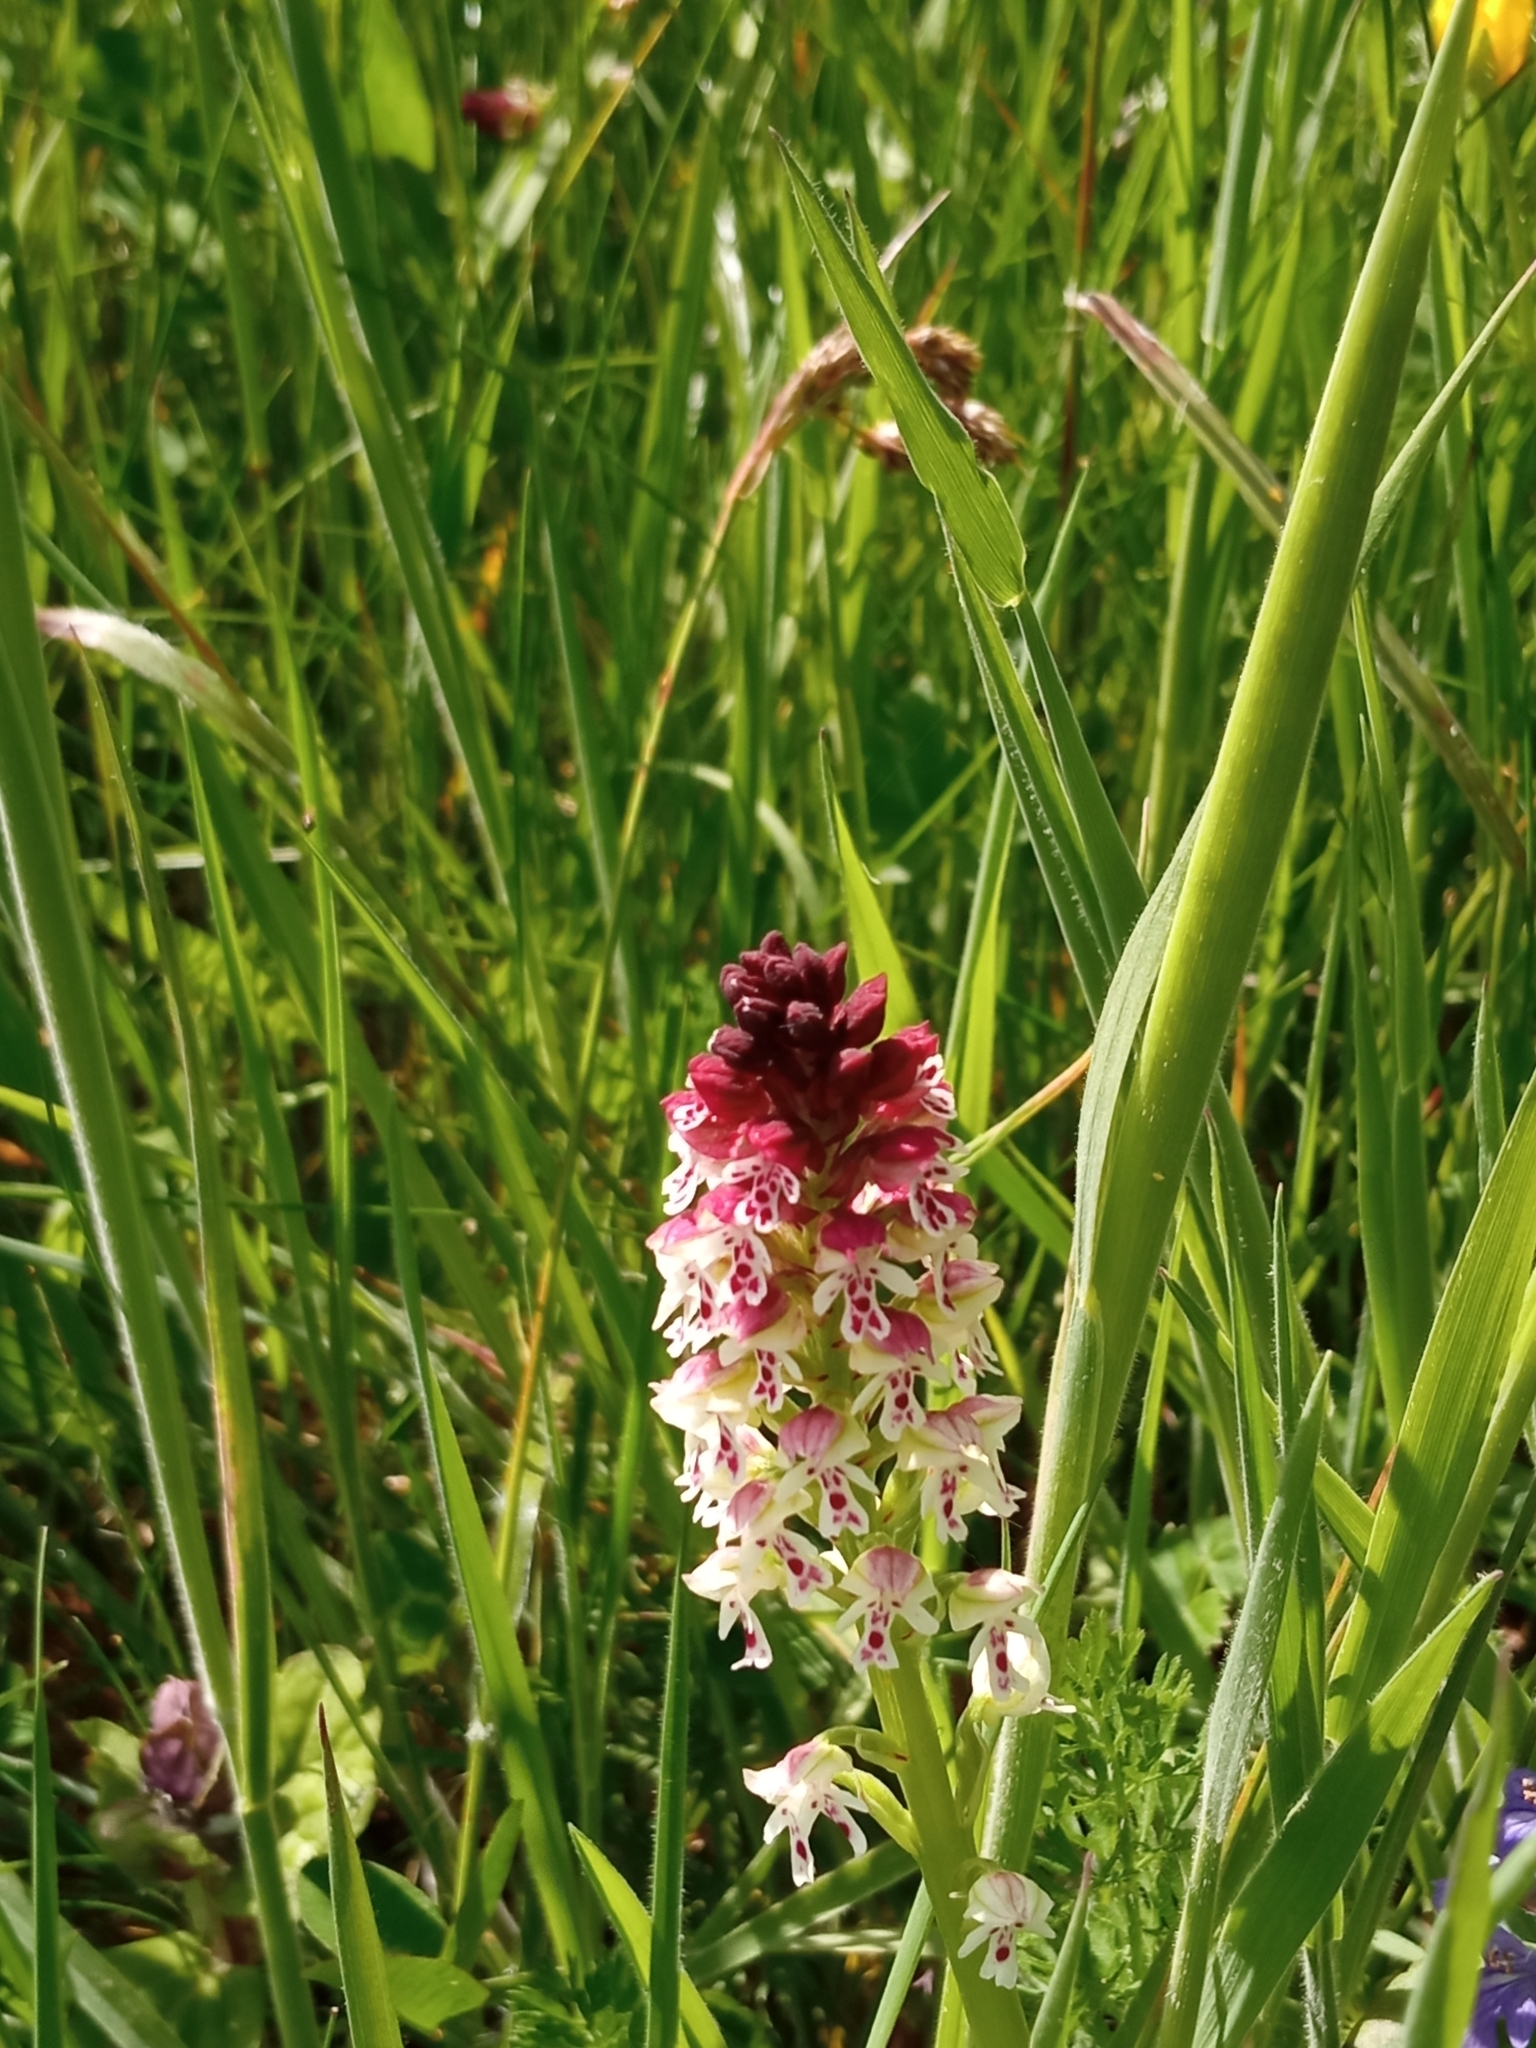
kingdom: Plantae
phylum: Tracheophyta
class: Liliopsida
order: Asparagales
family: Orchidaceae
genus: Neotinea
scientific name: Neotinea ustulata
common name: Burnt orchid
